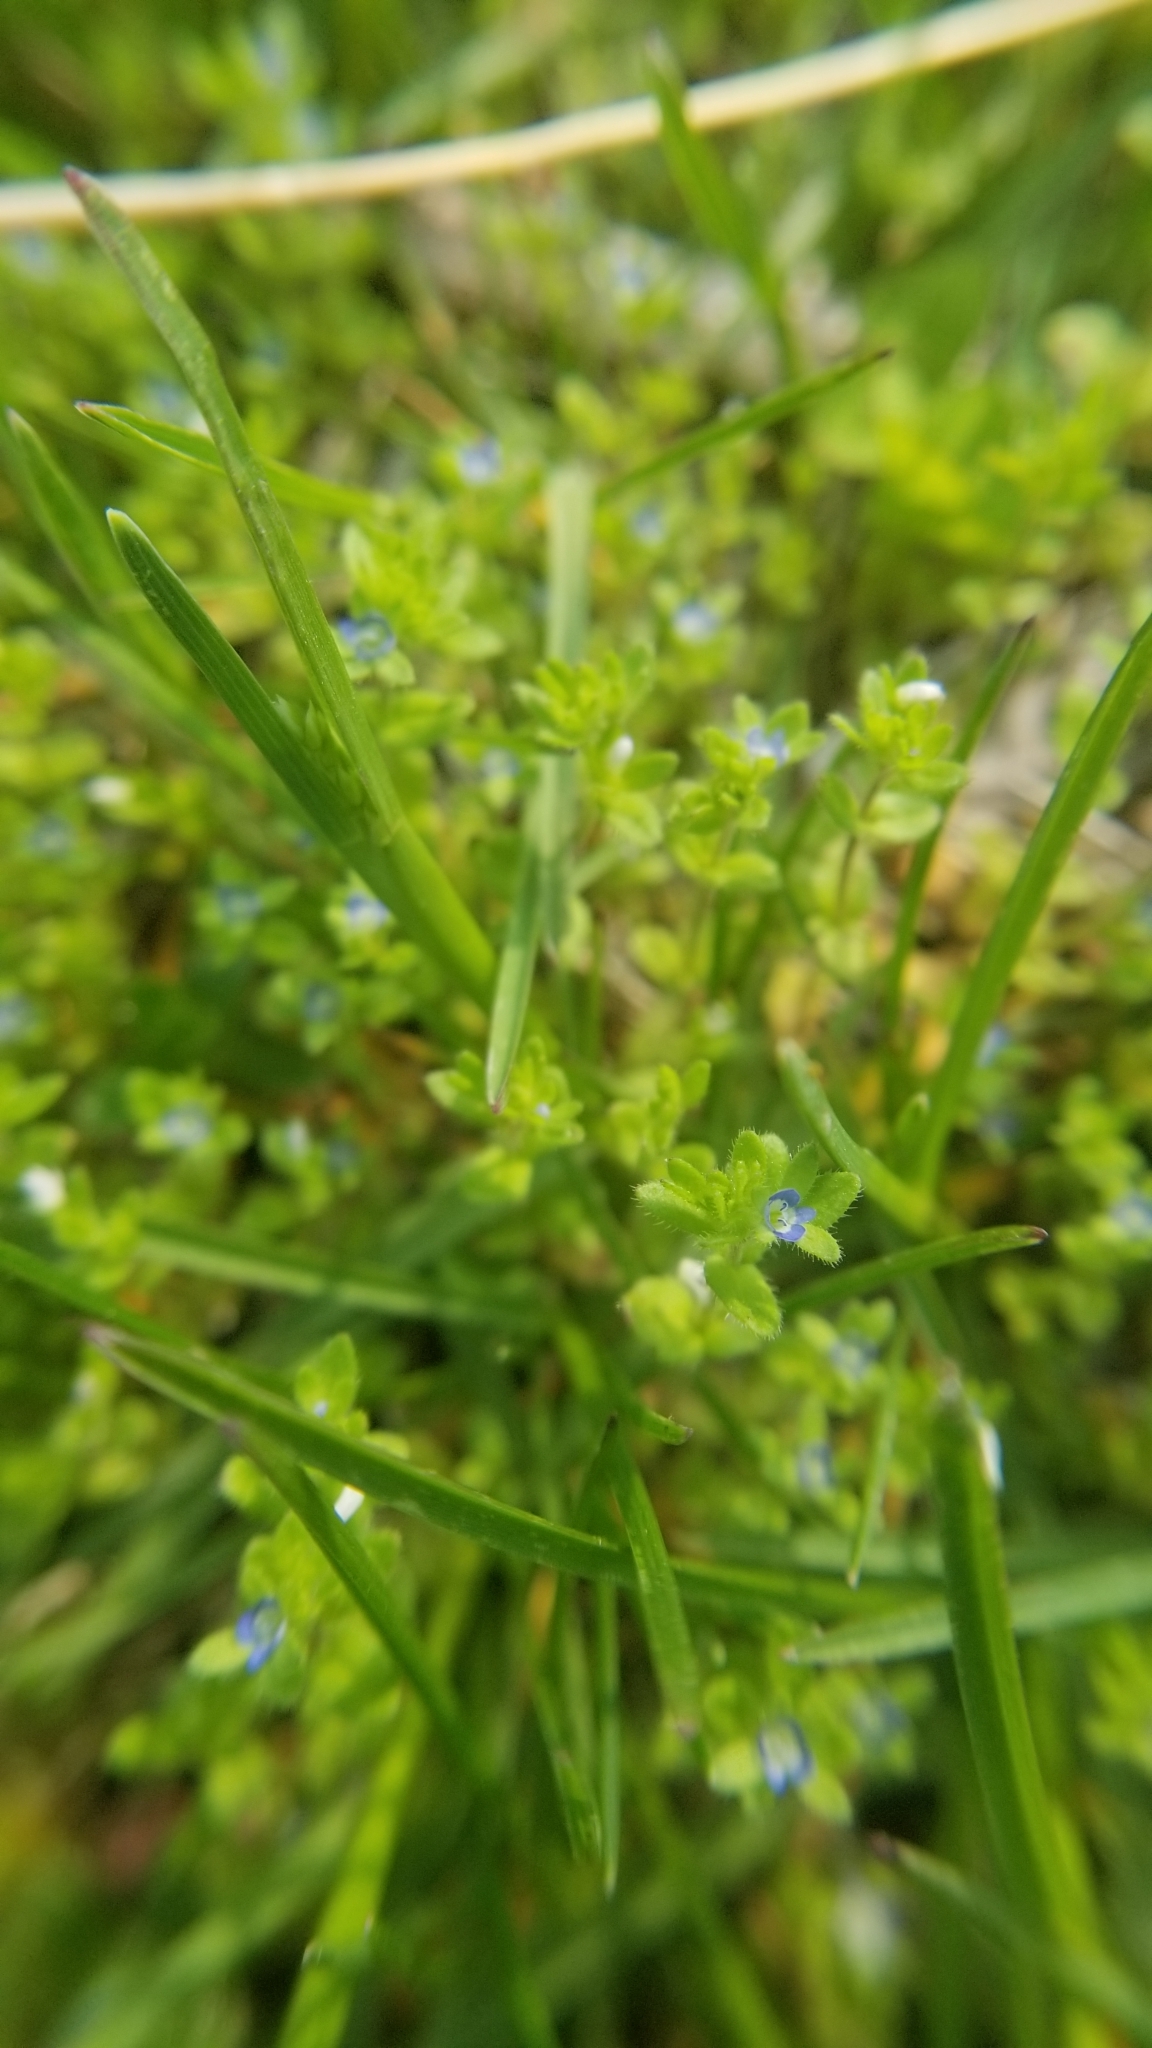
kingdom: Plantae
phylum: Tracheophyta
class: Magnoliopsida
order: Lamiales
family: Plantaginaceae
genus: Veronica
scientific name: Veronica arvensis
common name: Corn speedwell
